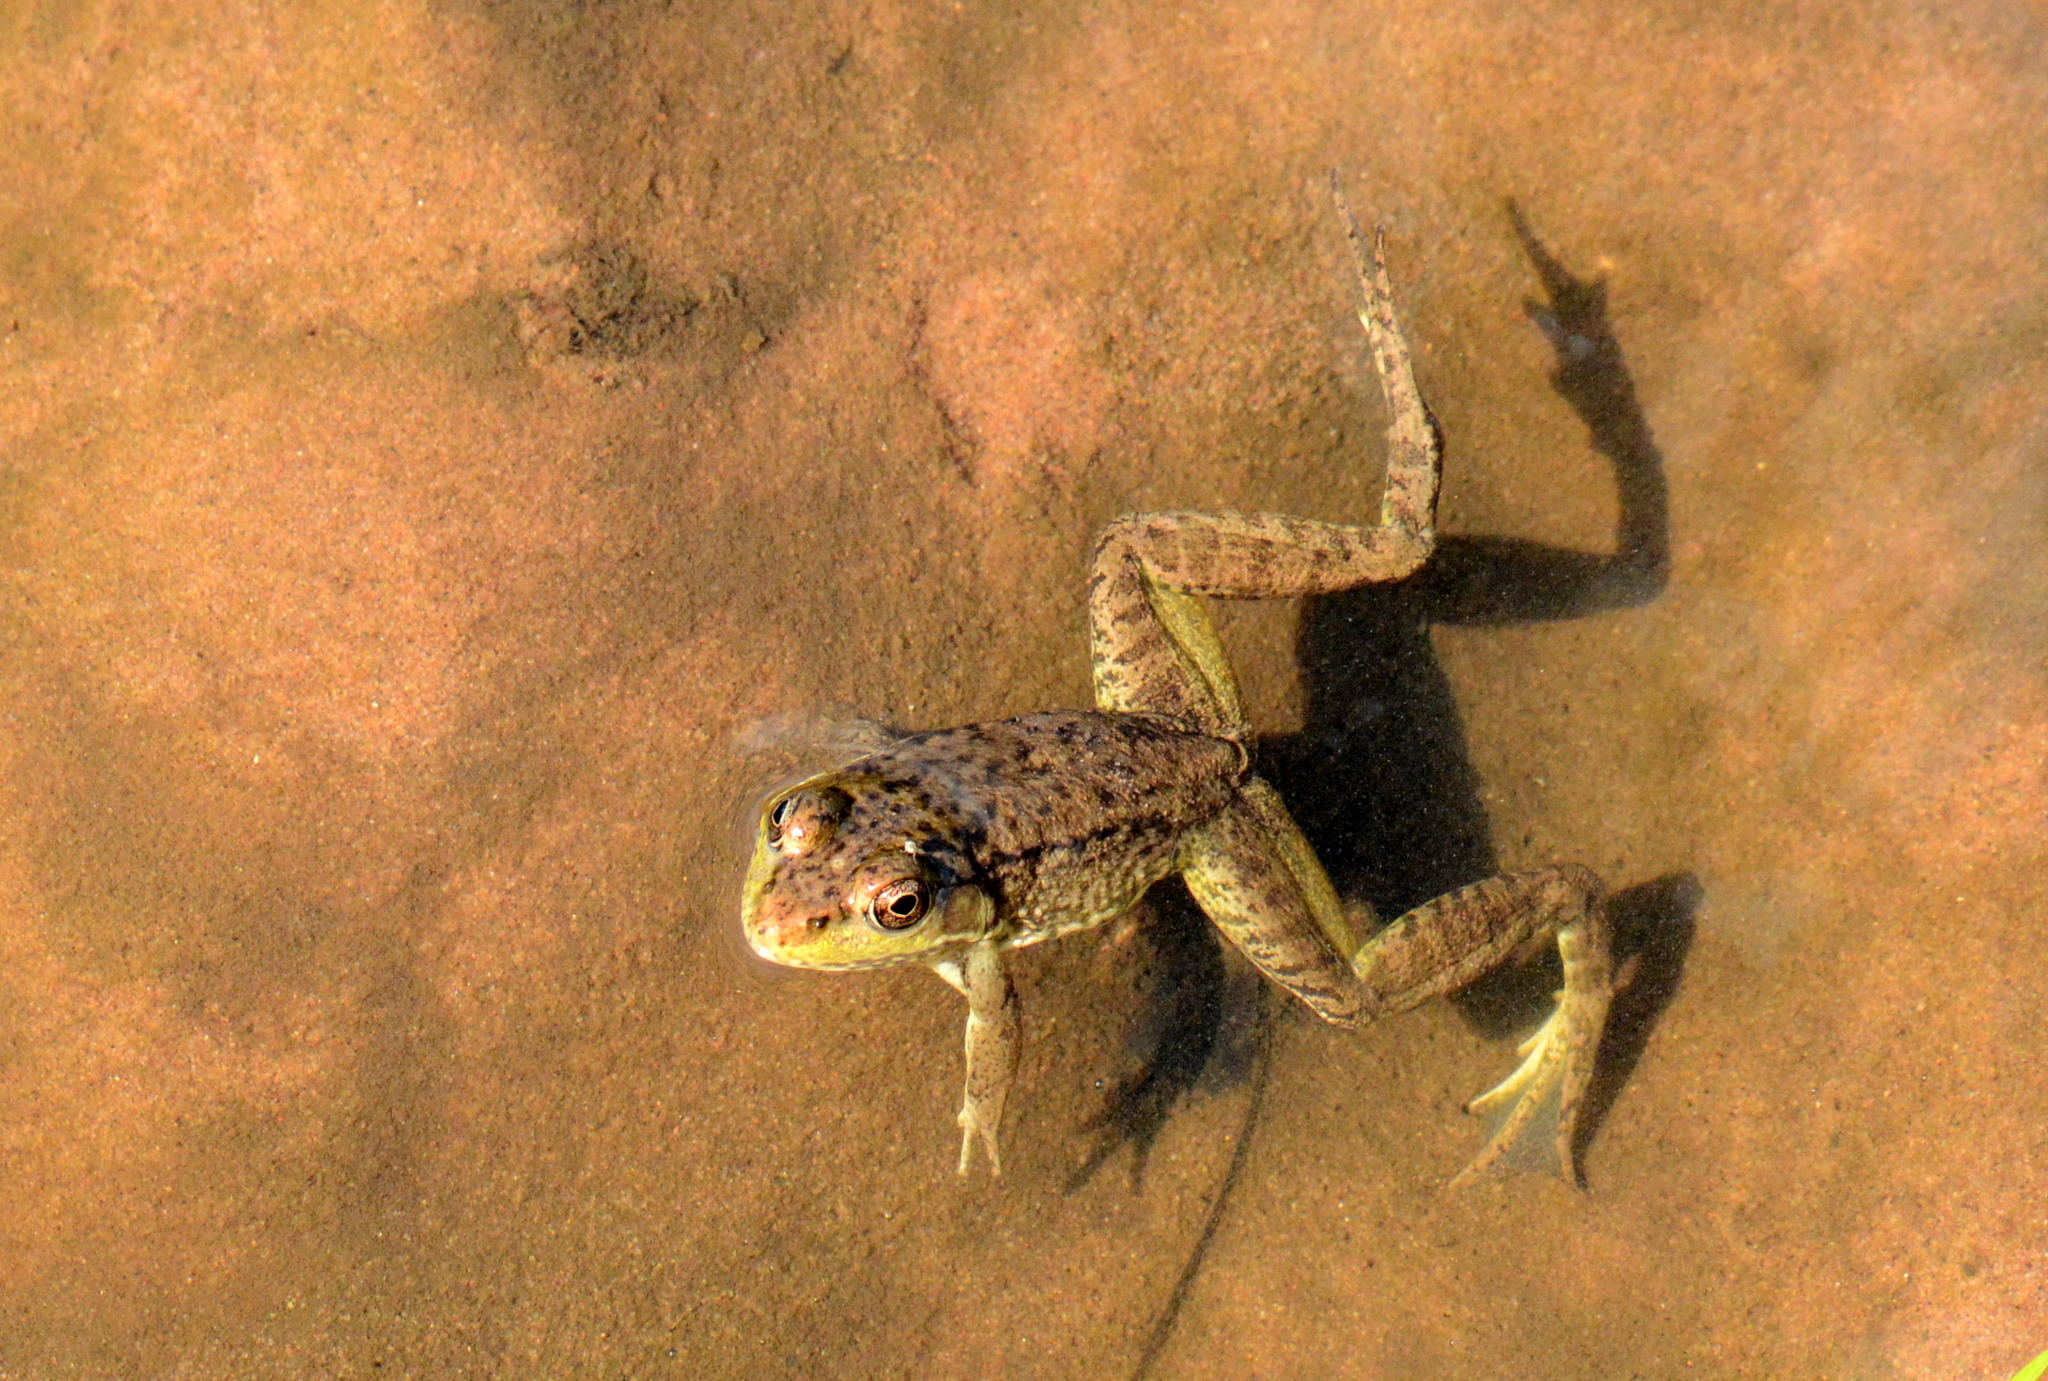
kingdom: Animalia
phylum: Chordata
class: Amphibia
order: Anura
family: Ranidae
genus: Lithobates
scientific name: Lithobates clamitans
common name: Green frog
